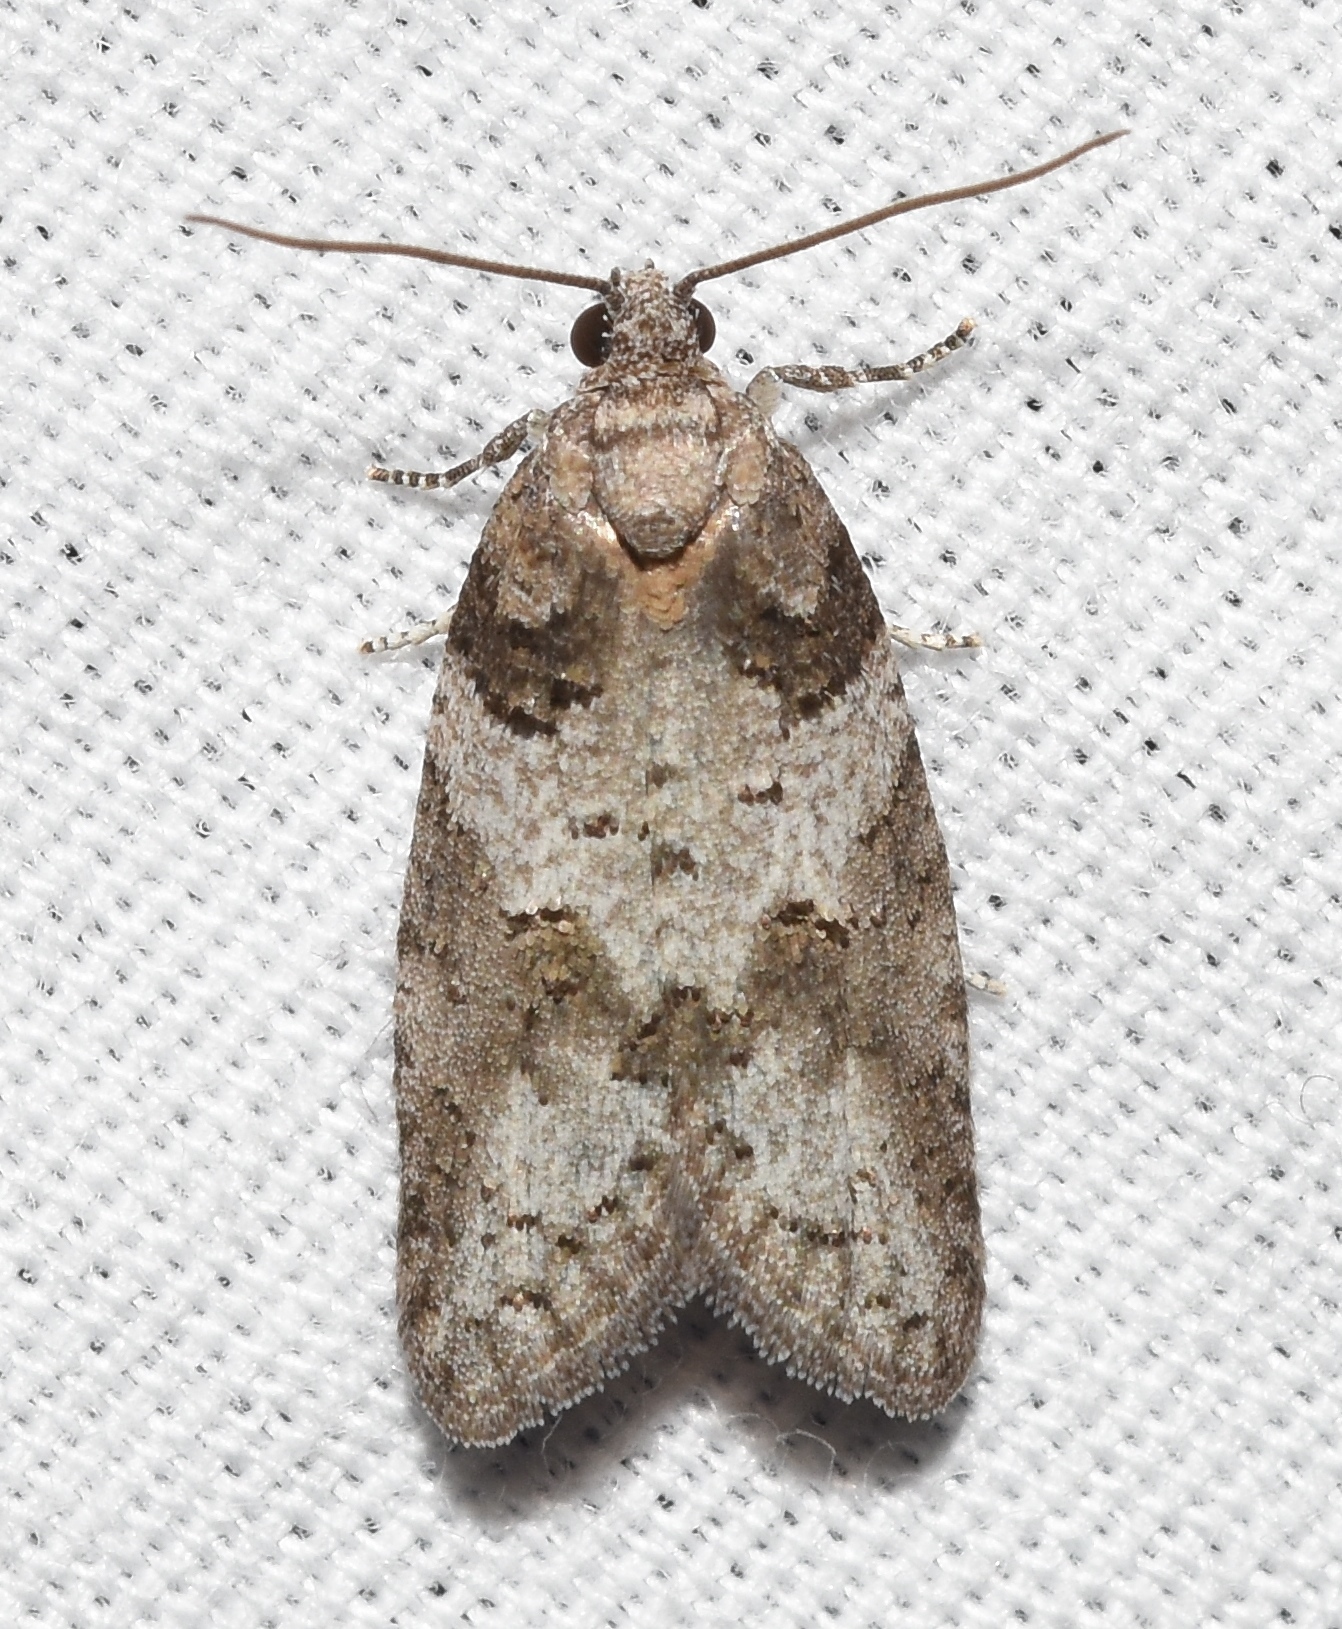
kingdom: Animalia
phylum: Arthropoda
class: Insecta
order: Lepidoptera
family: Tortricidae
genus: Decodes
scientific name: Decodes basiplagana
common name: Gray-marked tortricid
